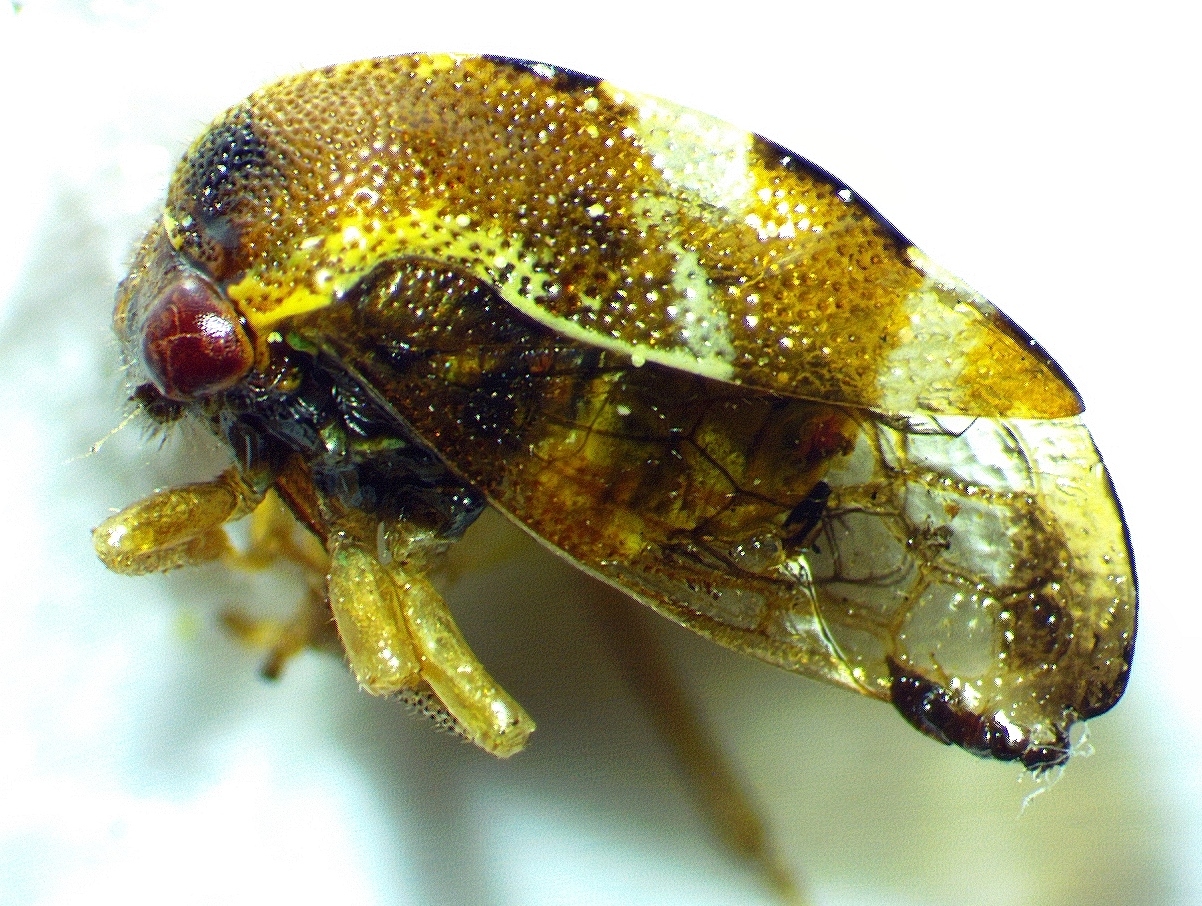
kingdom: Animalia
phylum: Arthropoda
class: Insecta
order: Hemiptera
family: Membracidae
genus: Cyrtolobus
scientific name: Cyrtolobus togatus
